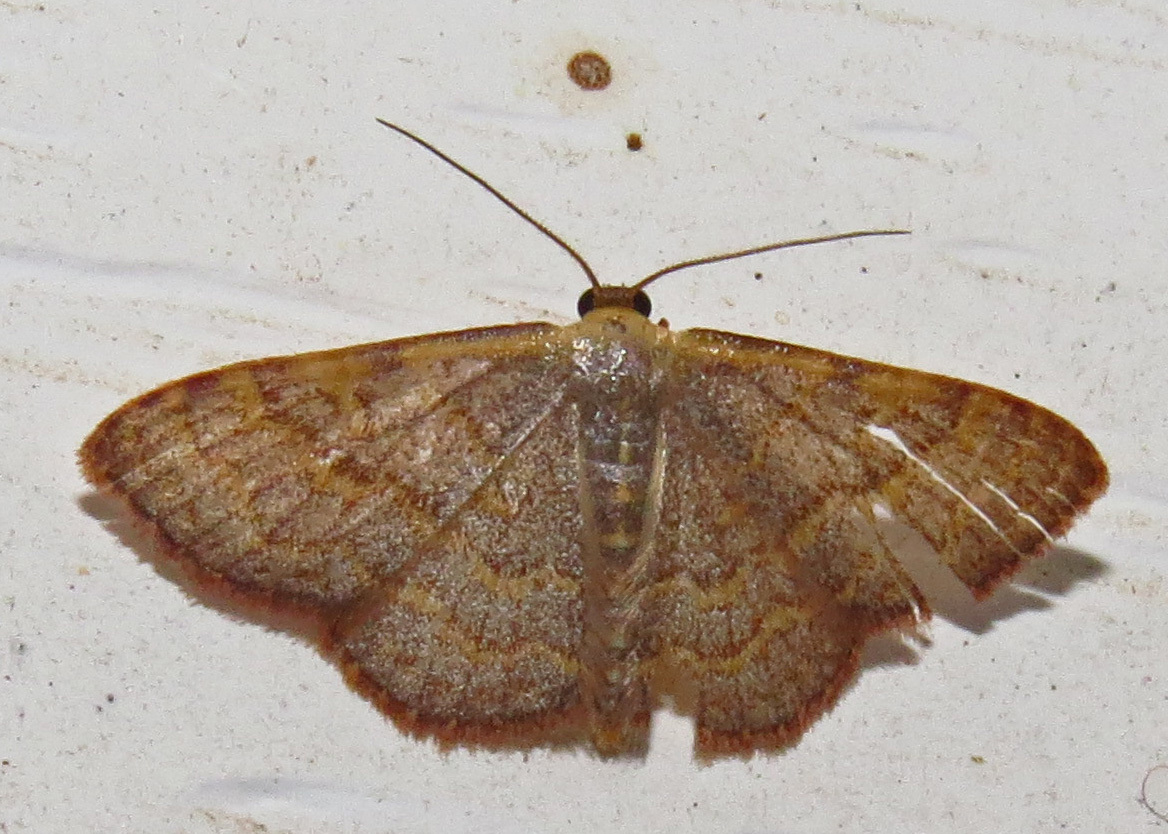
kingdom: Animalia
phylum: Arthropoda
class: Insecta
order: Lepidoptera
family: Geometridae
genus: Leptostales
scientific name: Leptostales pannaria
